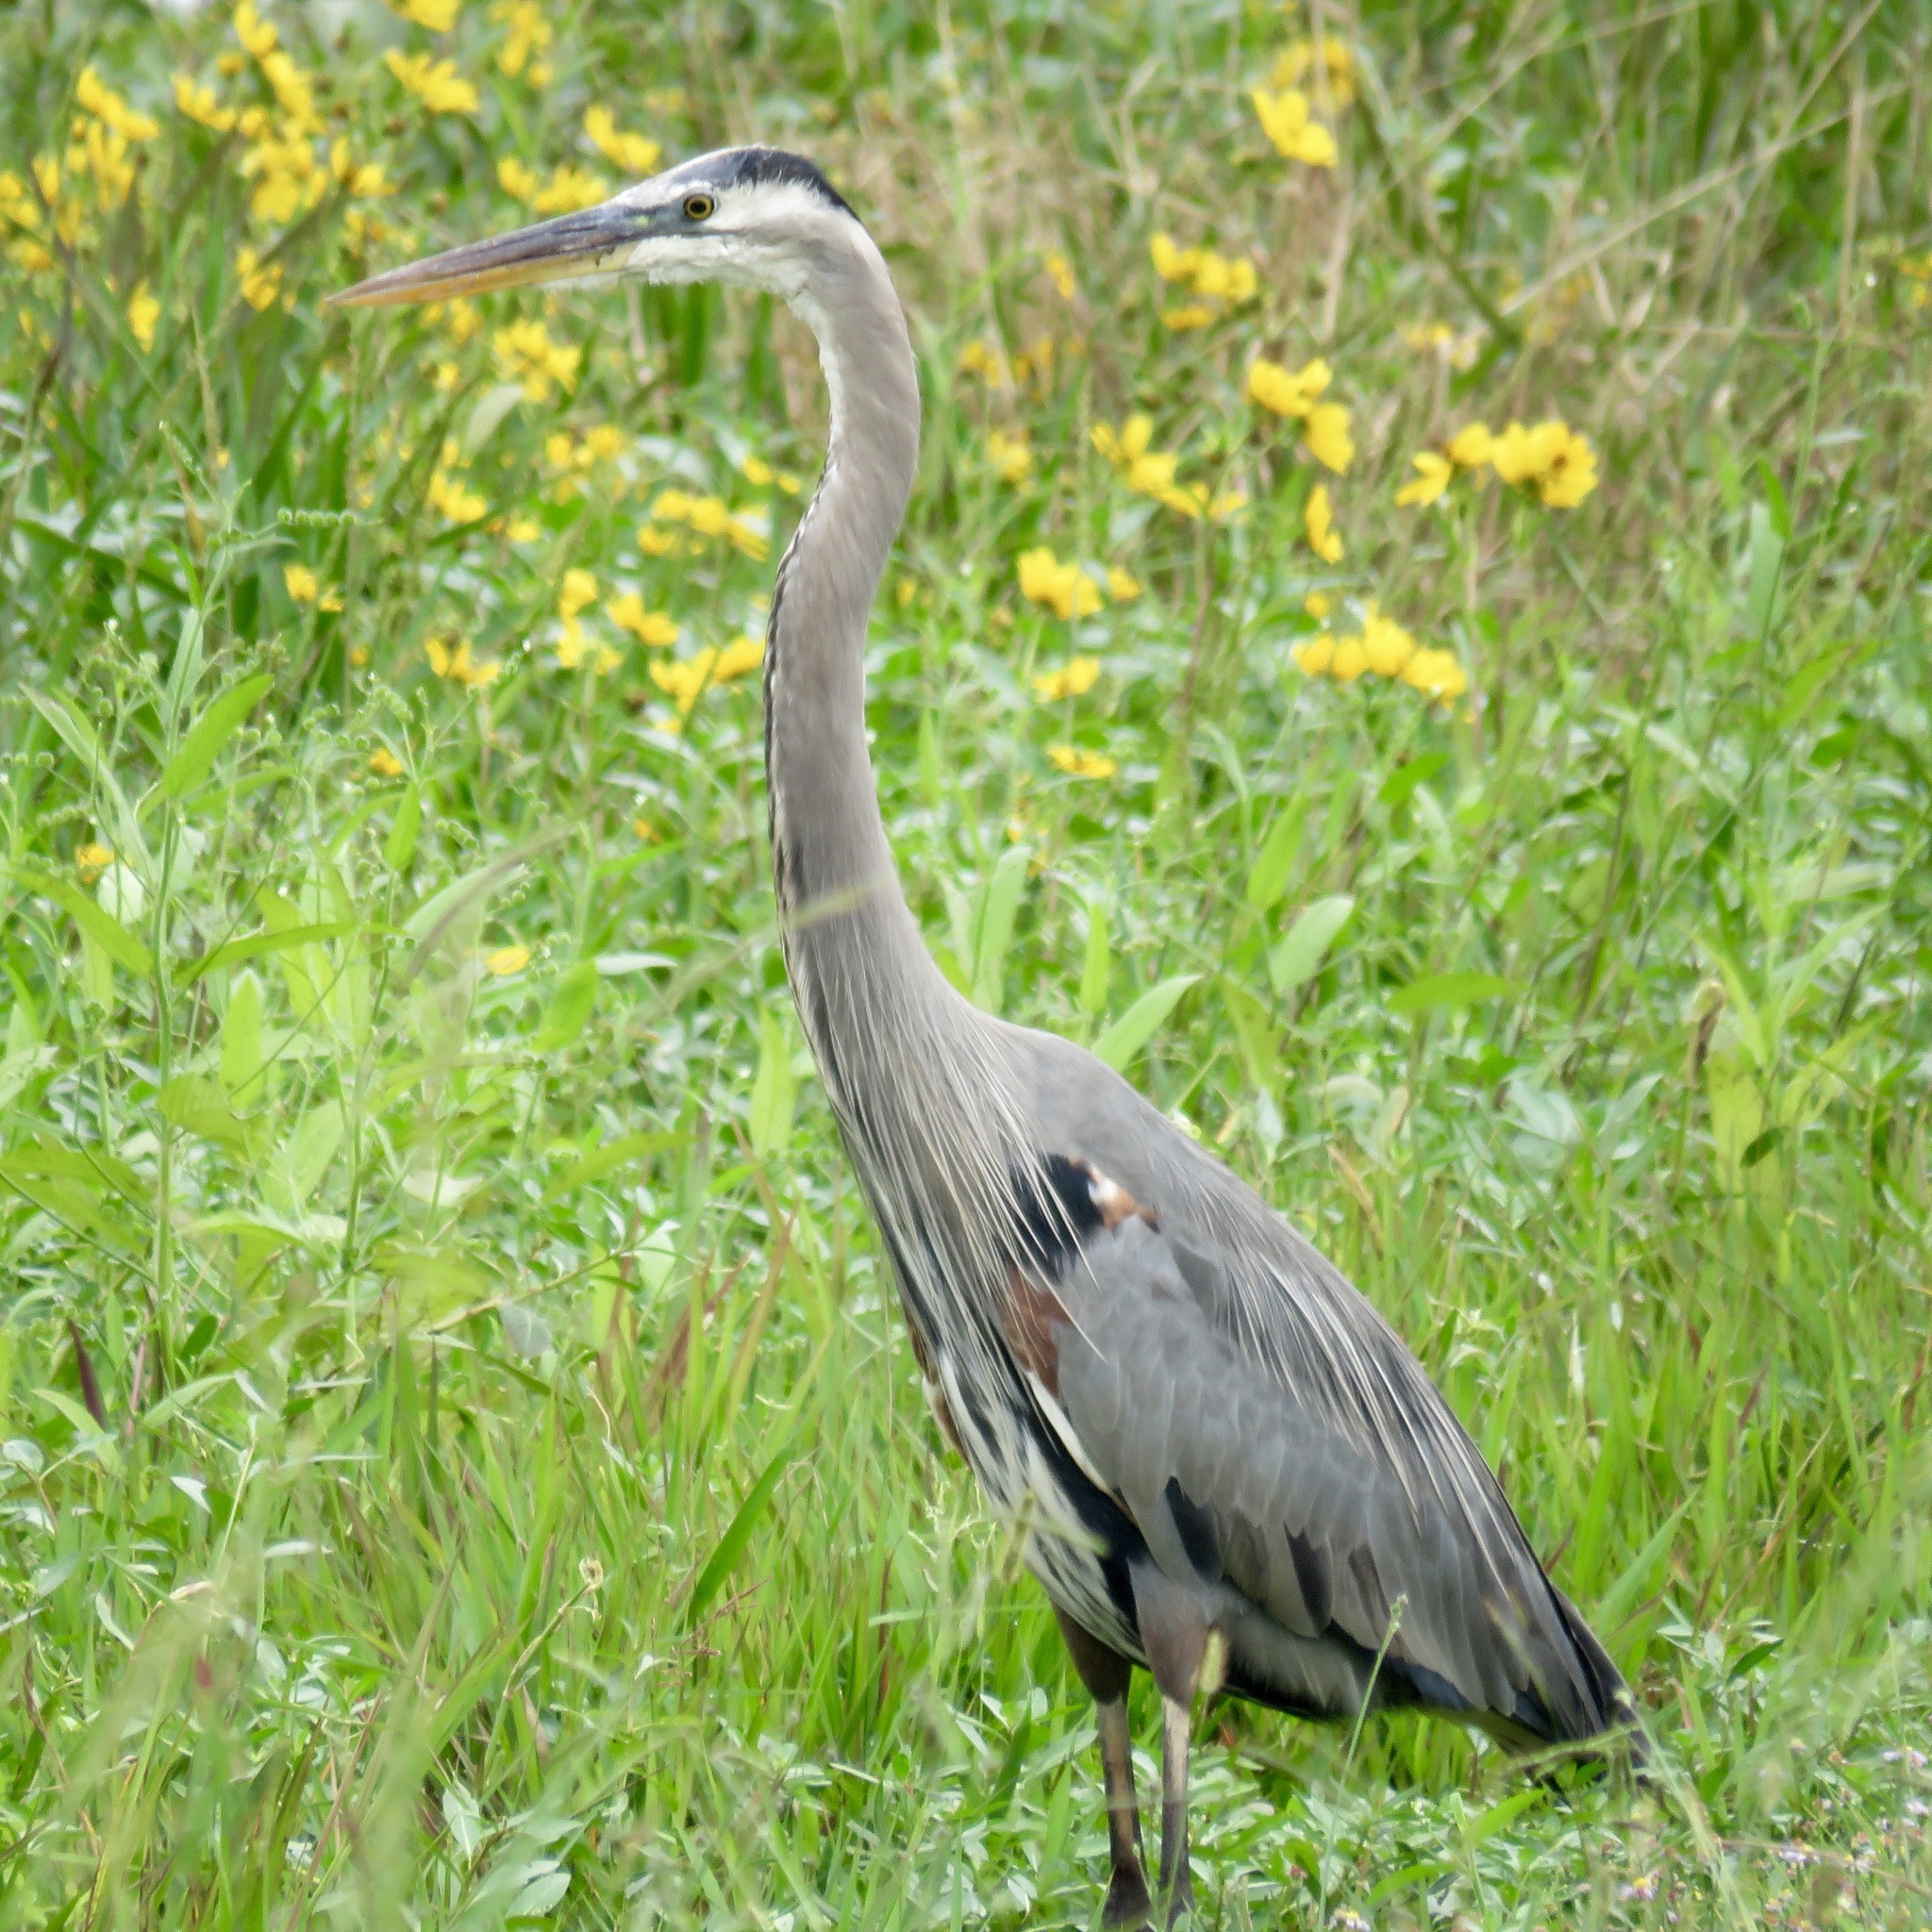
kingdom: Animalia
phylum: Chordata
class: Aves
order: Pelecaniformes
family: Ardeidae
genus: Ardea
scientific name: Ardea herodias
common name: Great blue heron
